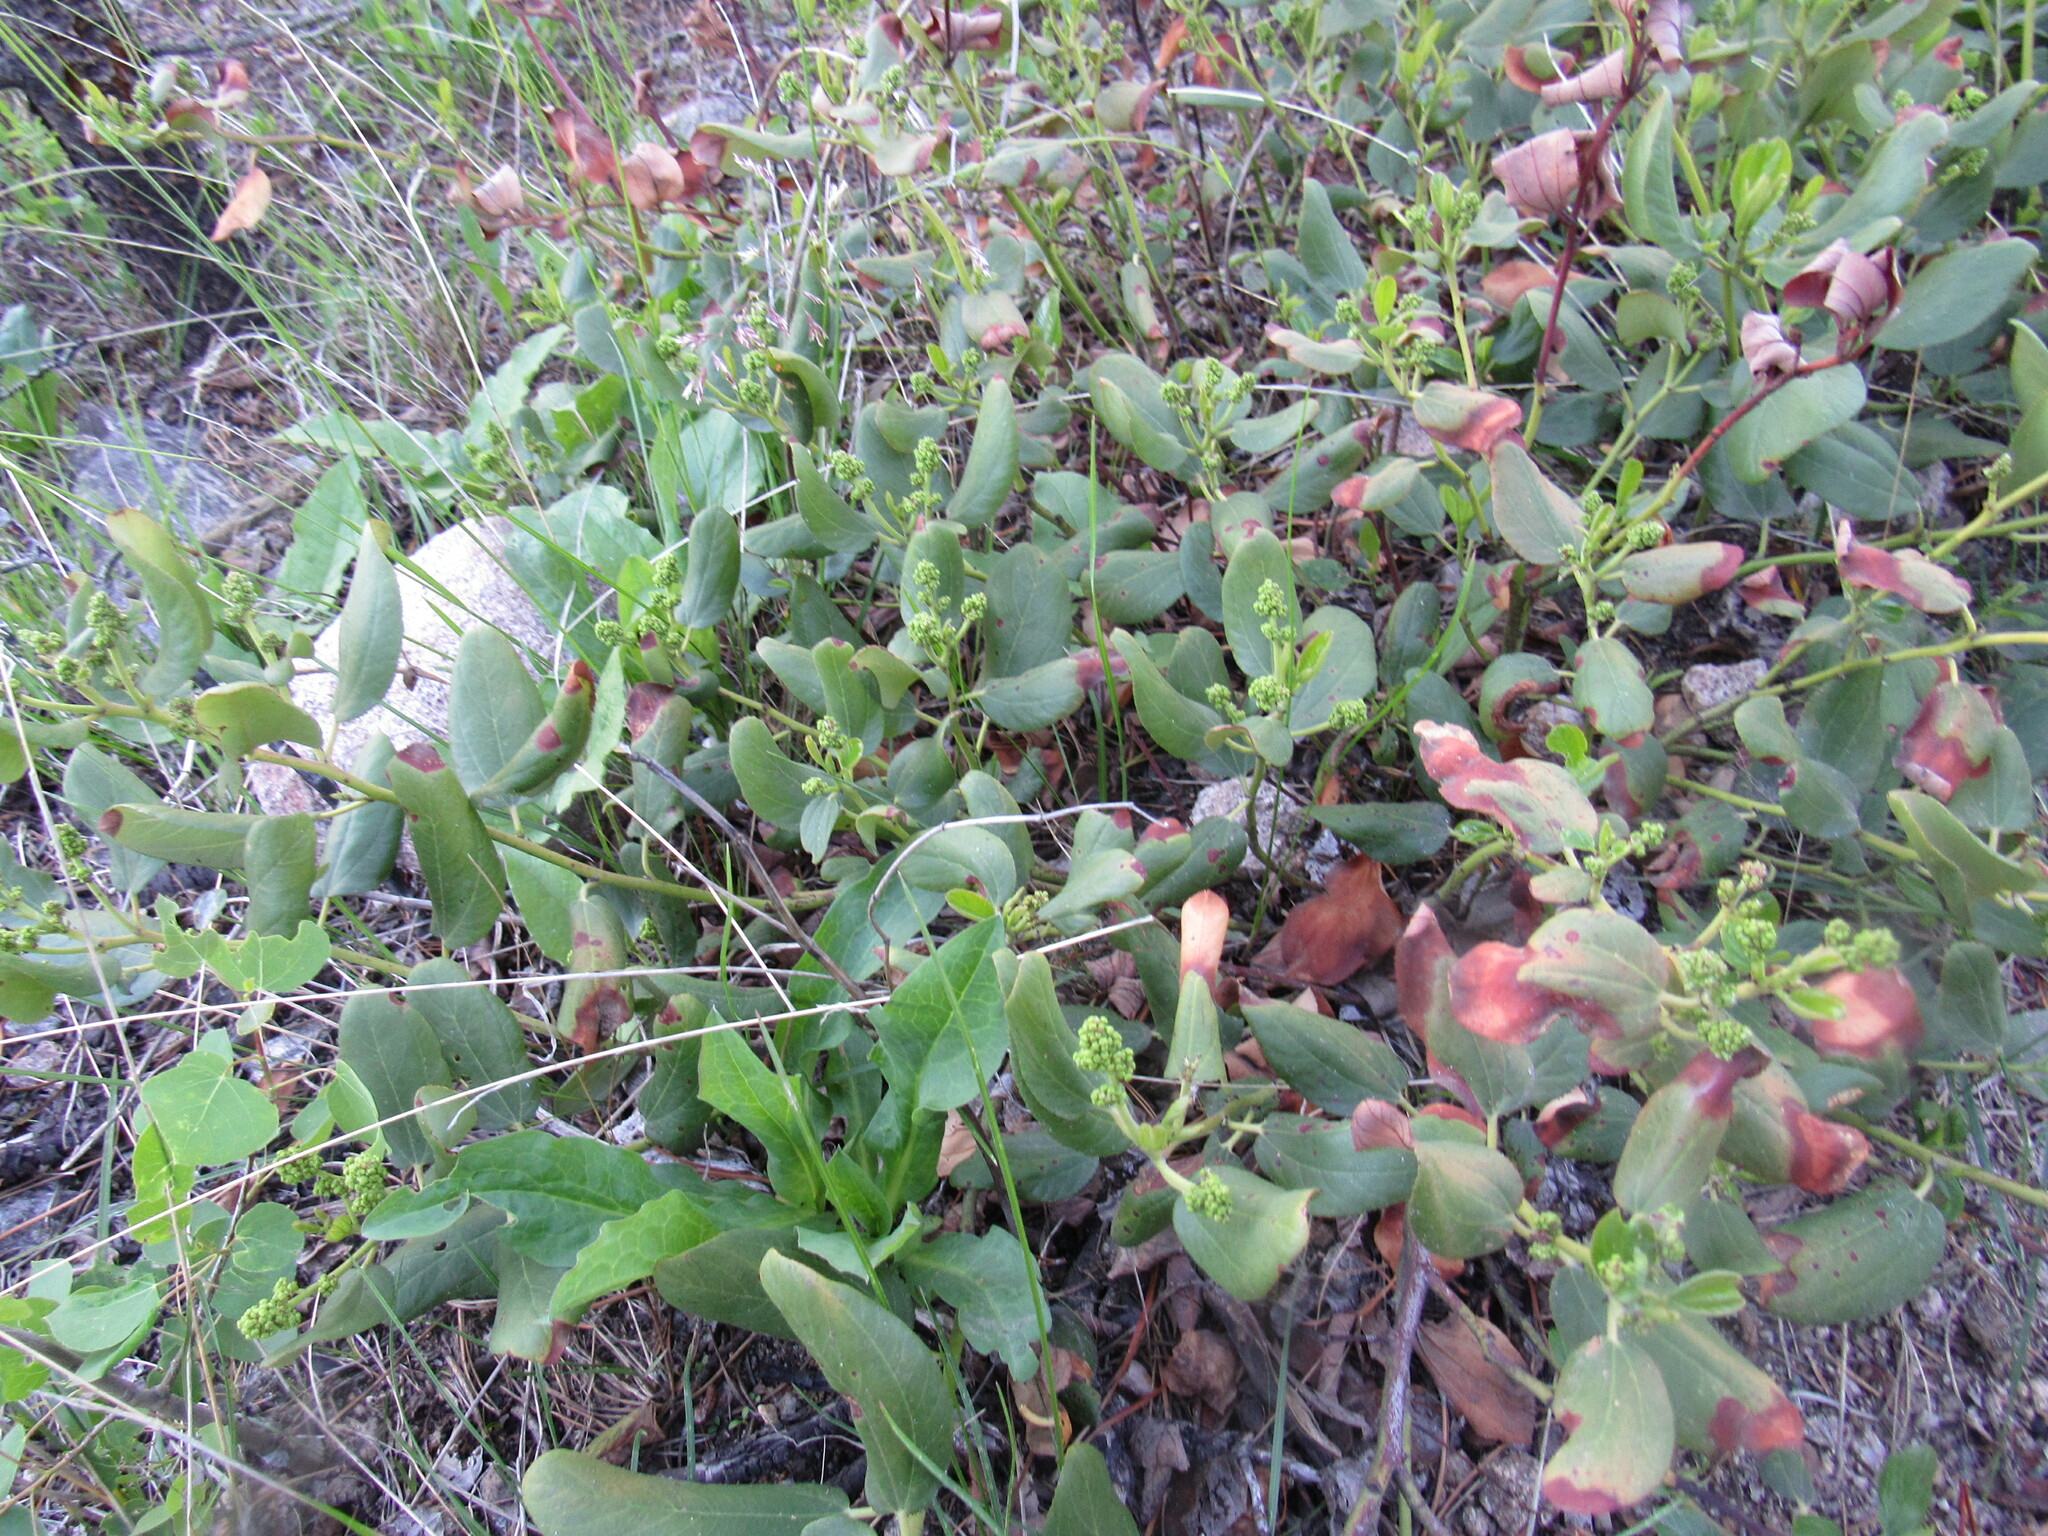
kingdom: Plantae
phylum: Tracheophyta
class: Magnoliopsida
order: Rosales
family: Rhamnaceae
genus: Ceanothus
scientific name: Ceanothus velutinus
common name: Snowbrush
